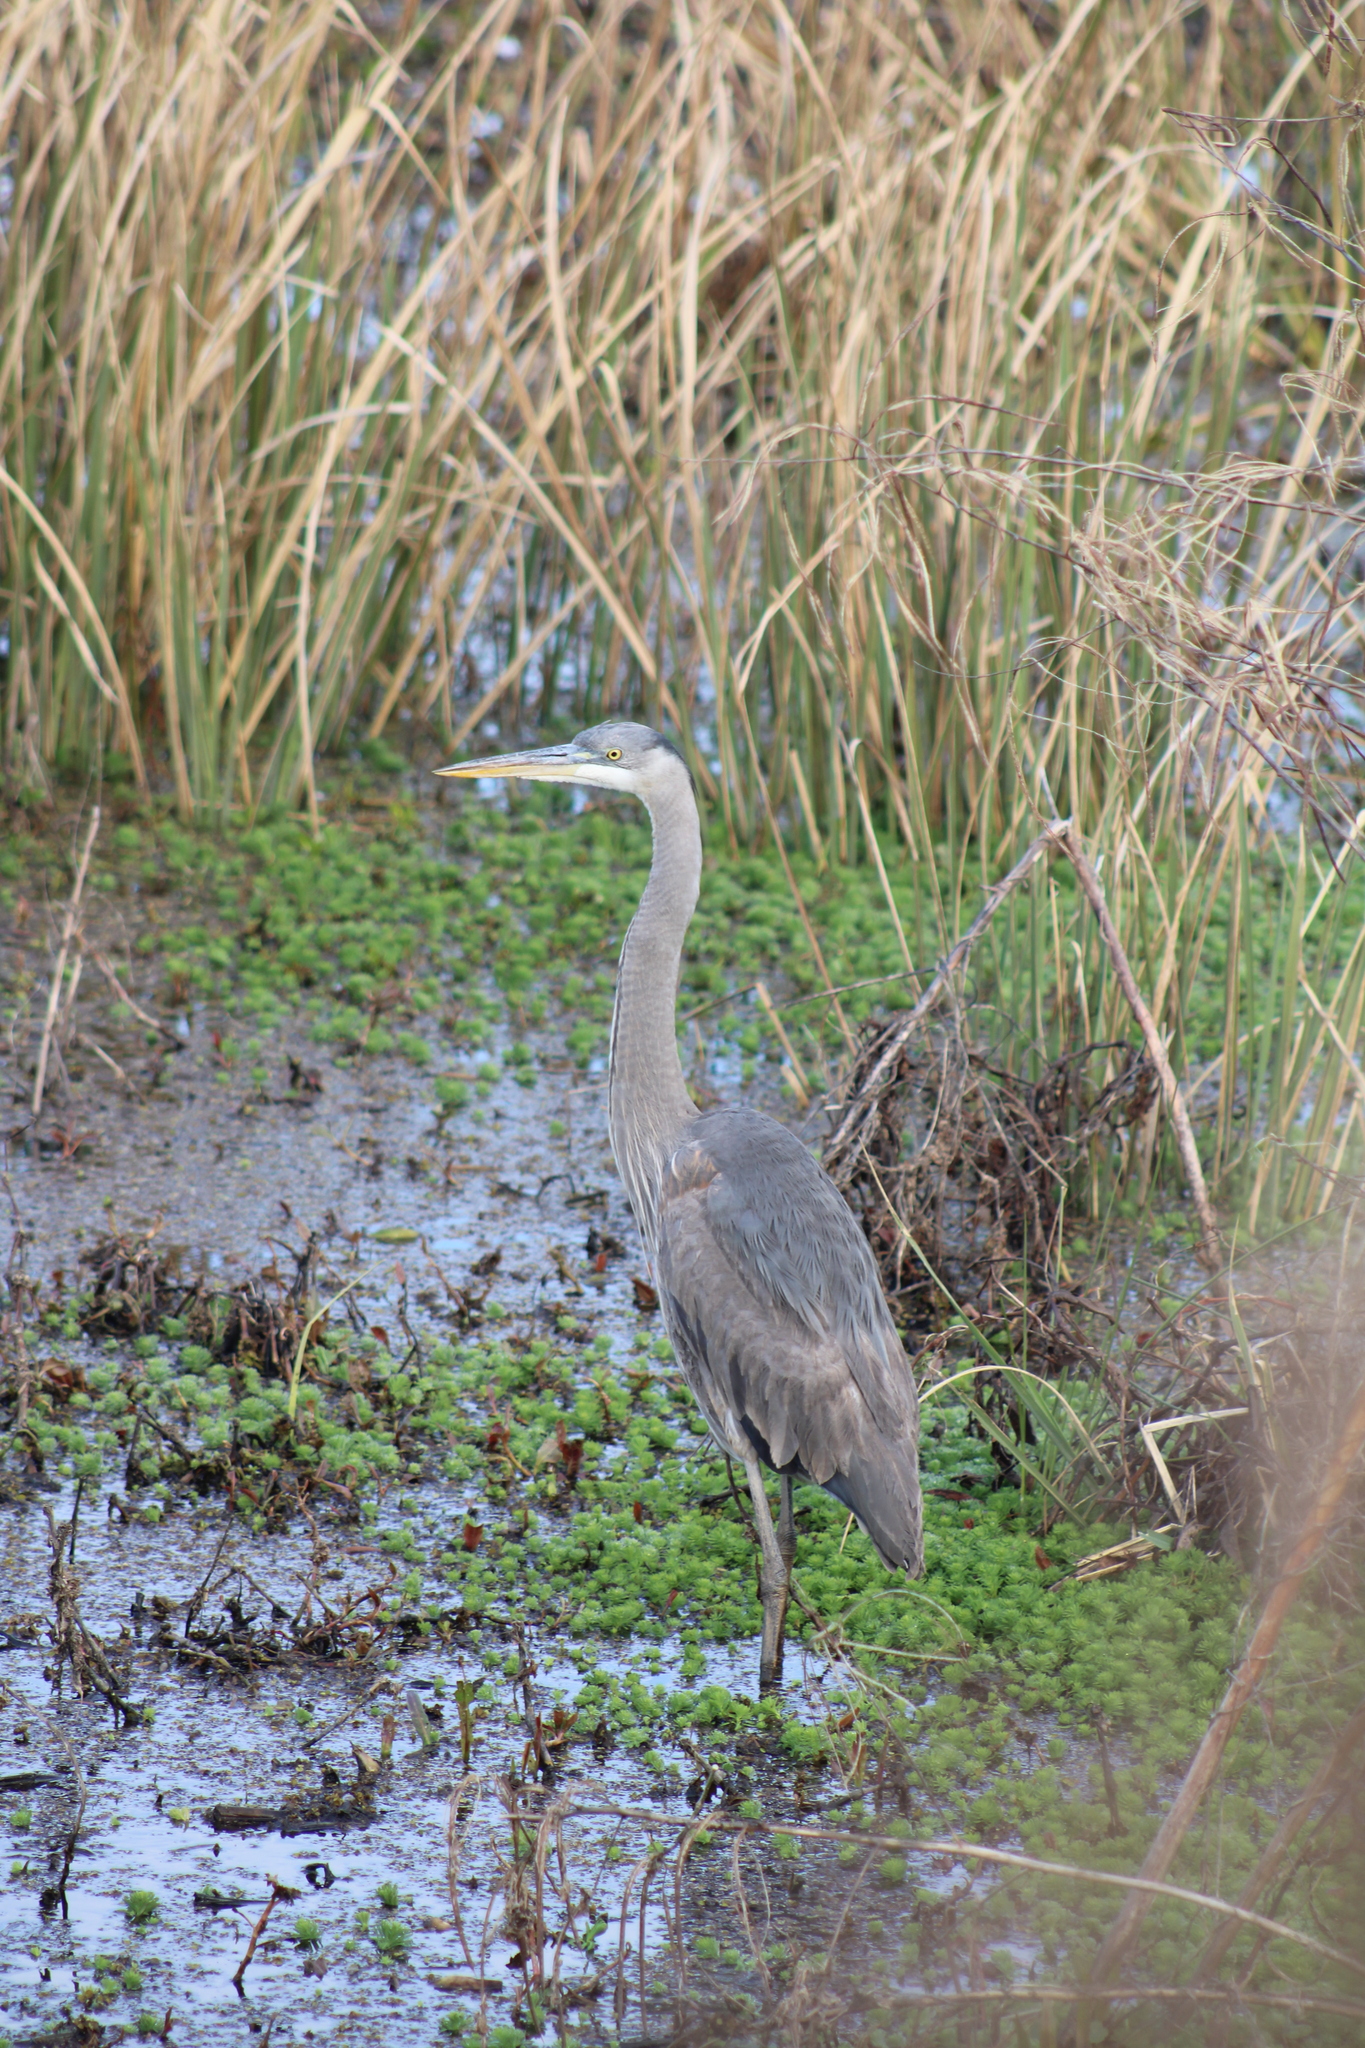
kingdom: Animalia
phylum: Chordata
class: Aves
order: Pelecaniformes
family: Ardeidae
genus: Ardea
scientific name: Ardea herodias
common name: Great blue heron
